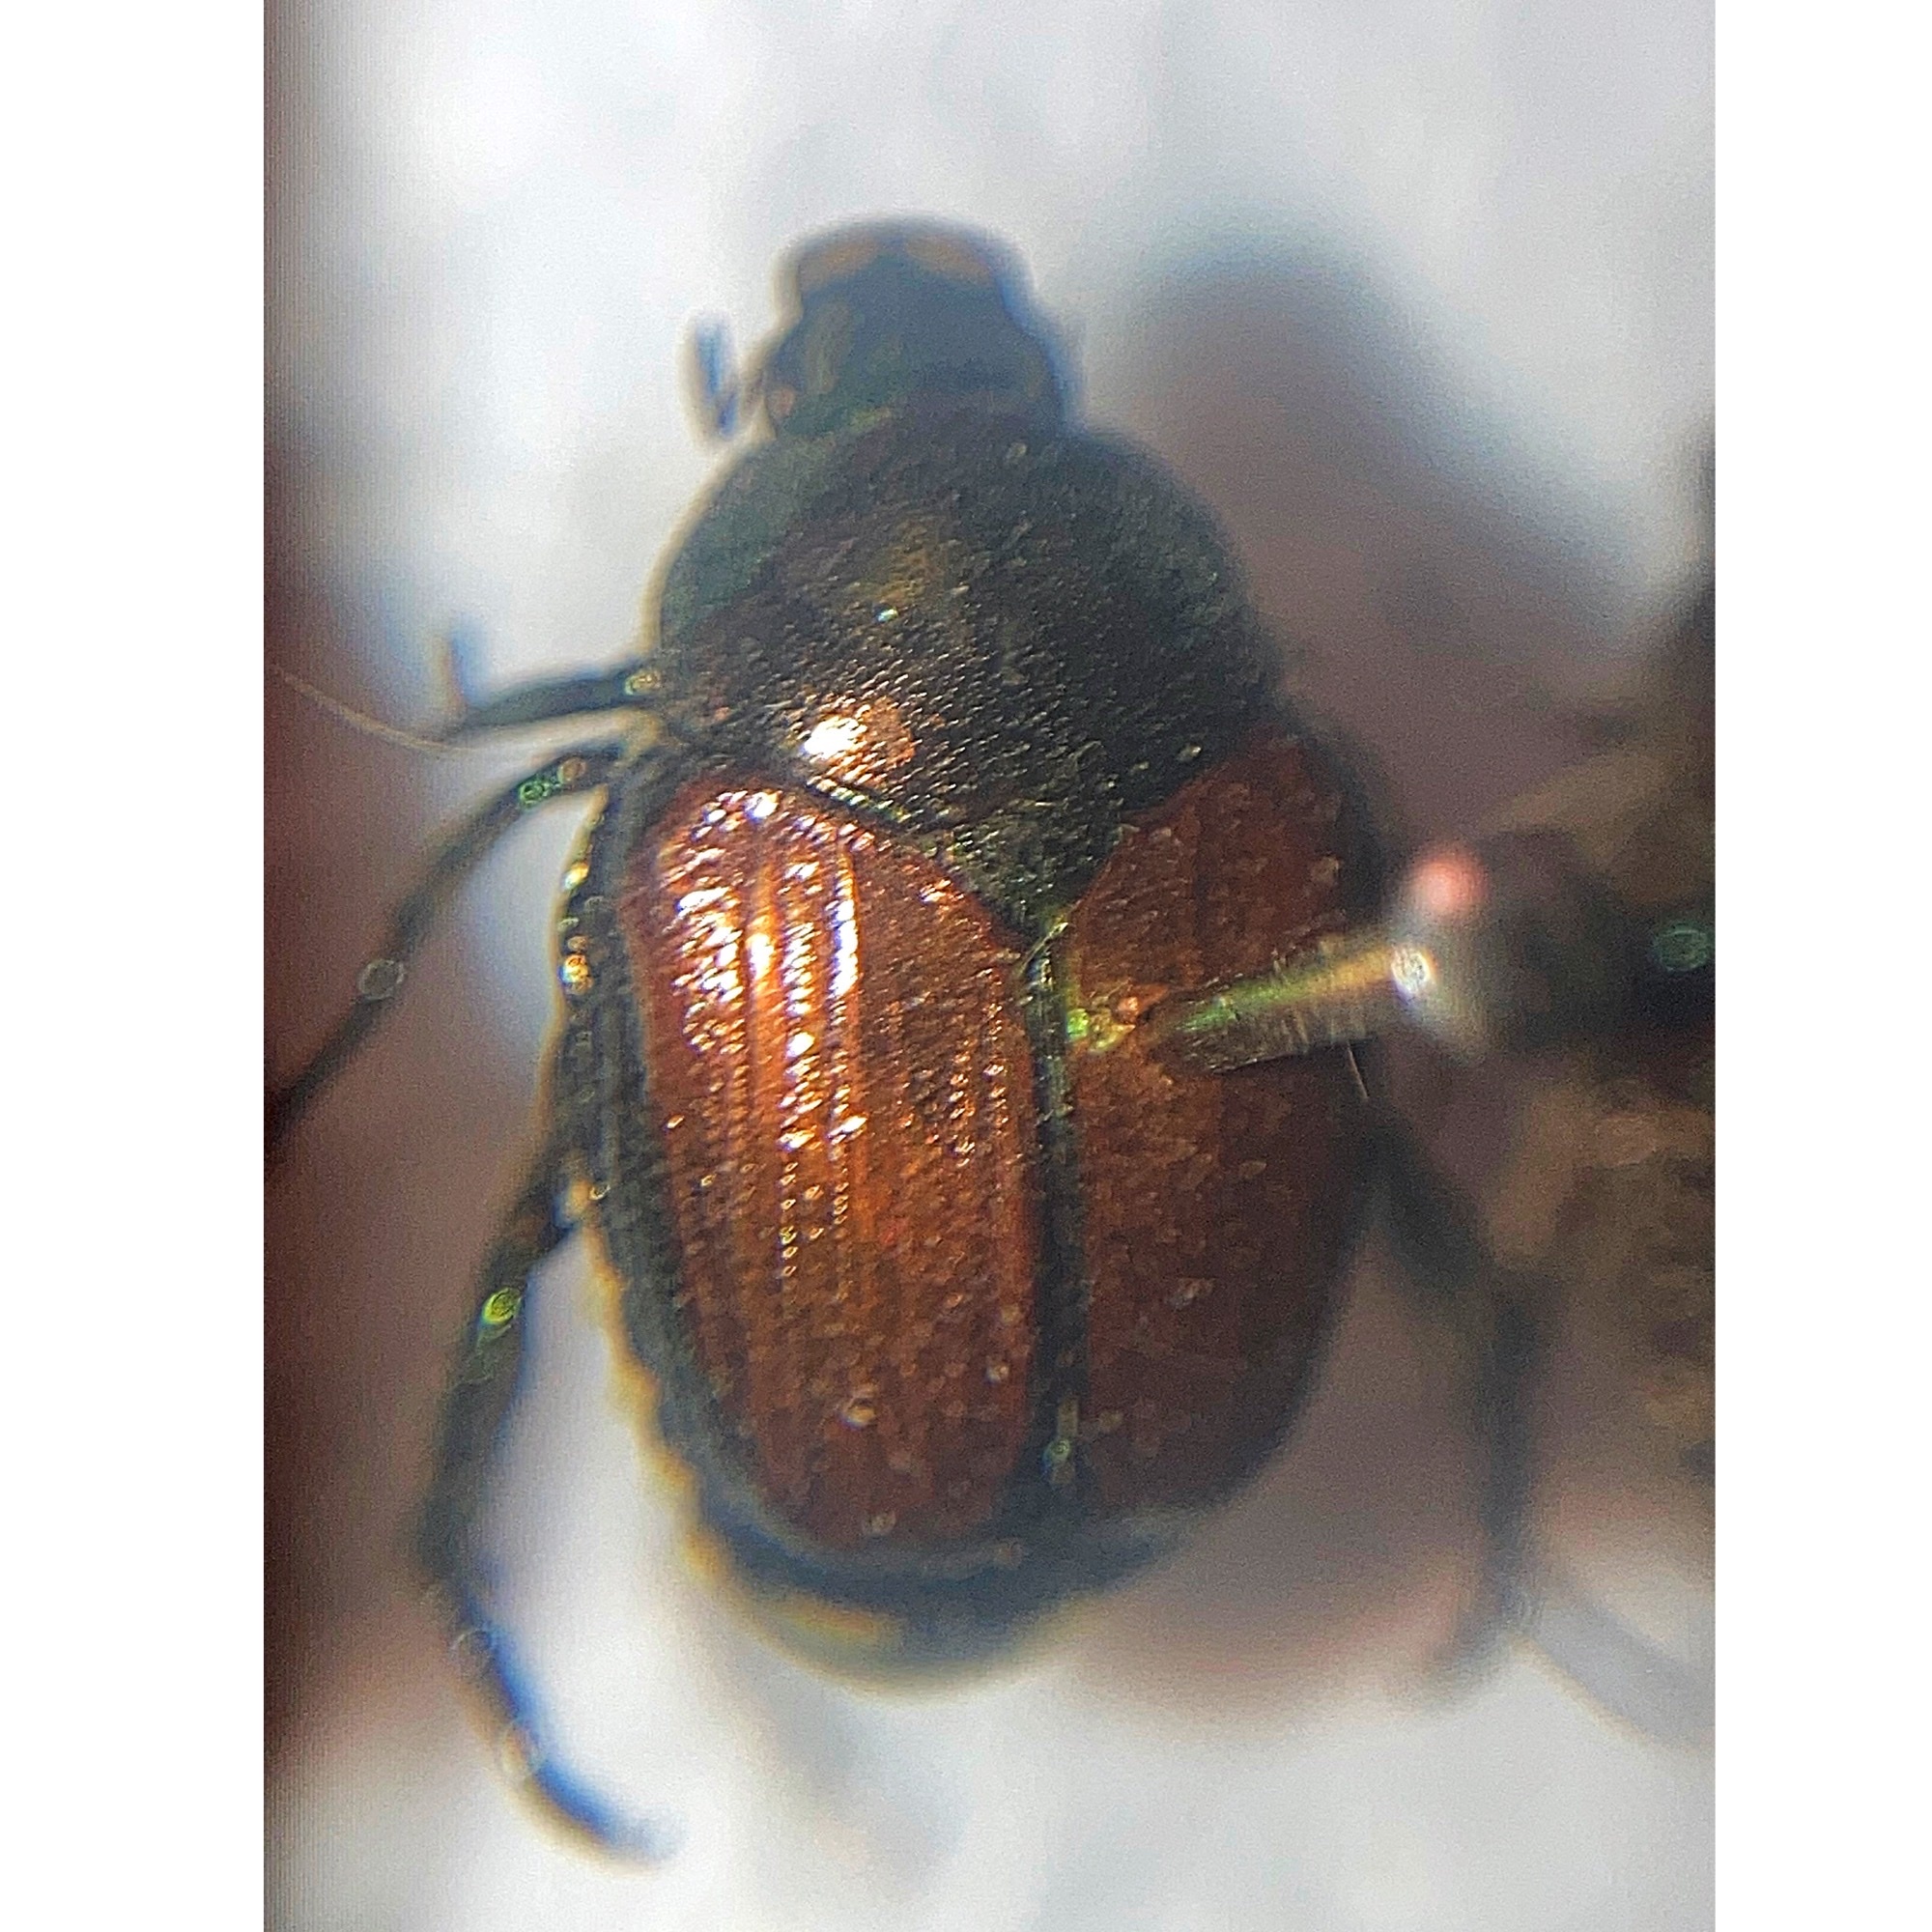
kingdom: Animalia
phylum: Arthropoda
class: Insecta
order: Coleoptera
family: Scarabaeidae
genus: Popillia
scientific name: Popillia japonica
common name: Japanese beetle
